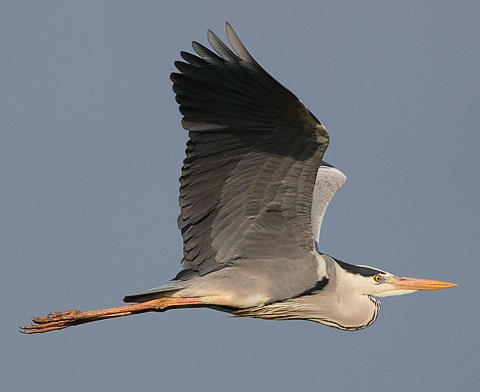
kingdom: Animalia
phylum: Chordata
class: Aves
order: Pelecaniformes
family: Ardeidae
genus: Ardea
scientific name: Ardea cinerea
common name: Grey heron
